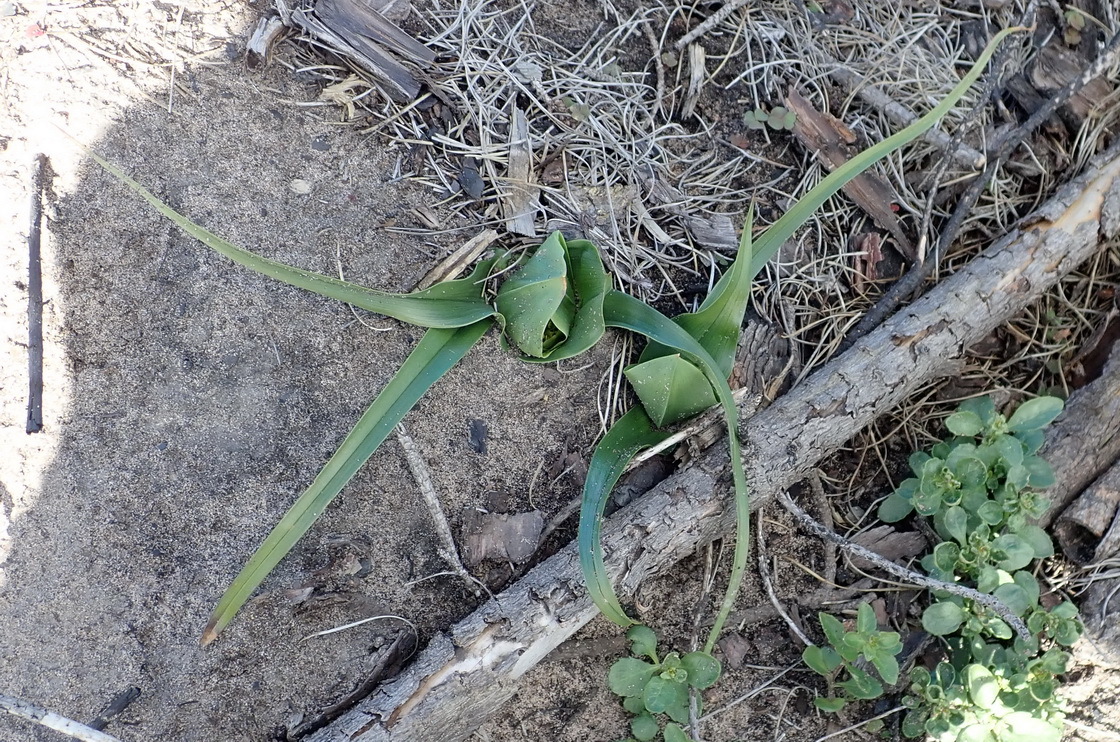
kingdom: Plantae
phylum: Tracheophyta
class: Liliopsida
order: Liliales
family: Colchicaceae
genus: Colchicum
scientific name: Colchicum eucomoides
